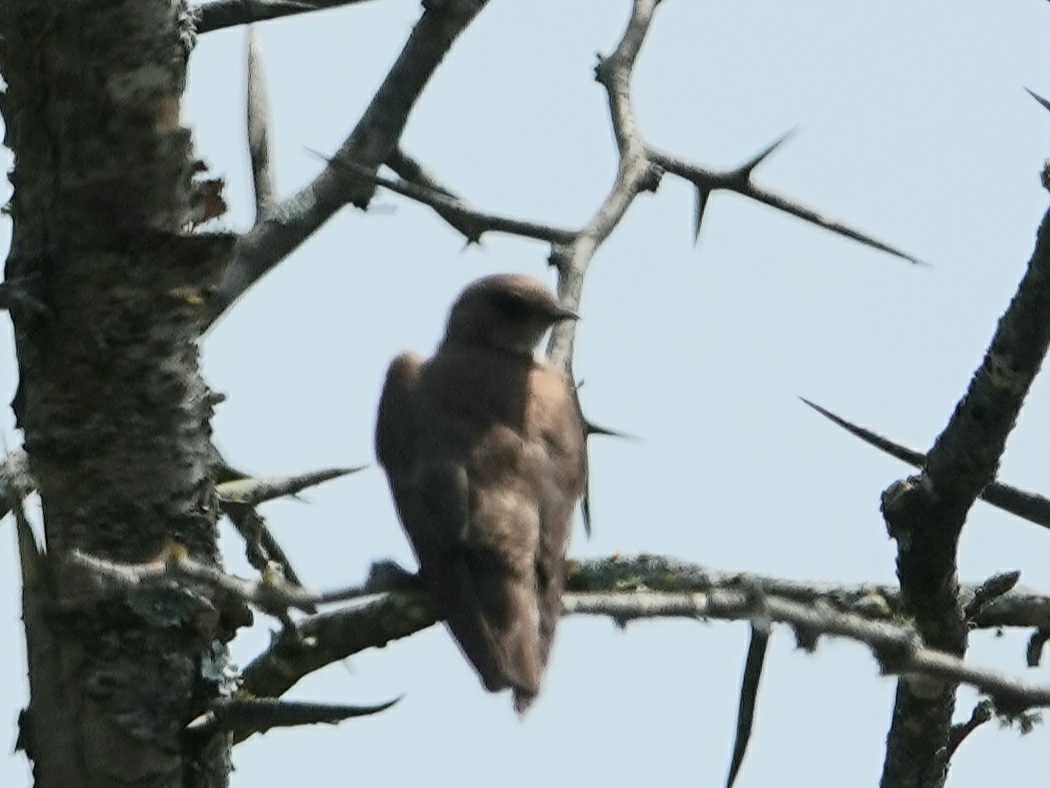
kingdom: Animalia
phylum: Chordata
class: Aves
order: Passeriformes
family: Hirundinidae
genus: Stelgidopteryx
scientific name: Stelgidopteryx serripennis
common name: Northern rough-winged swallow
